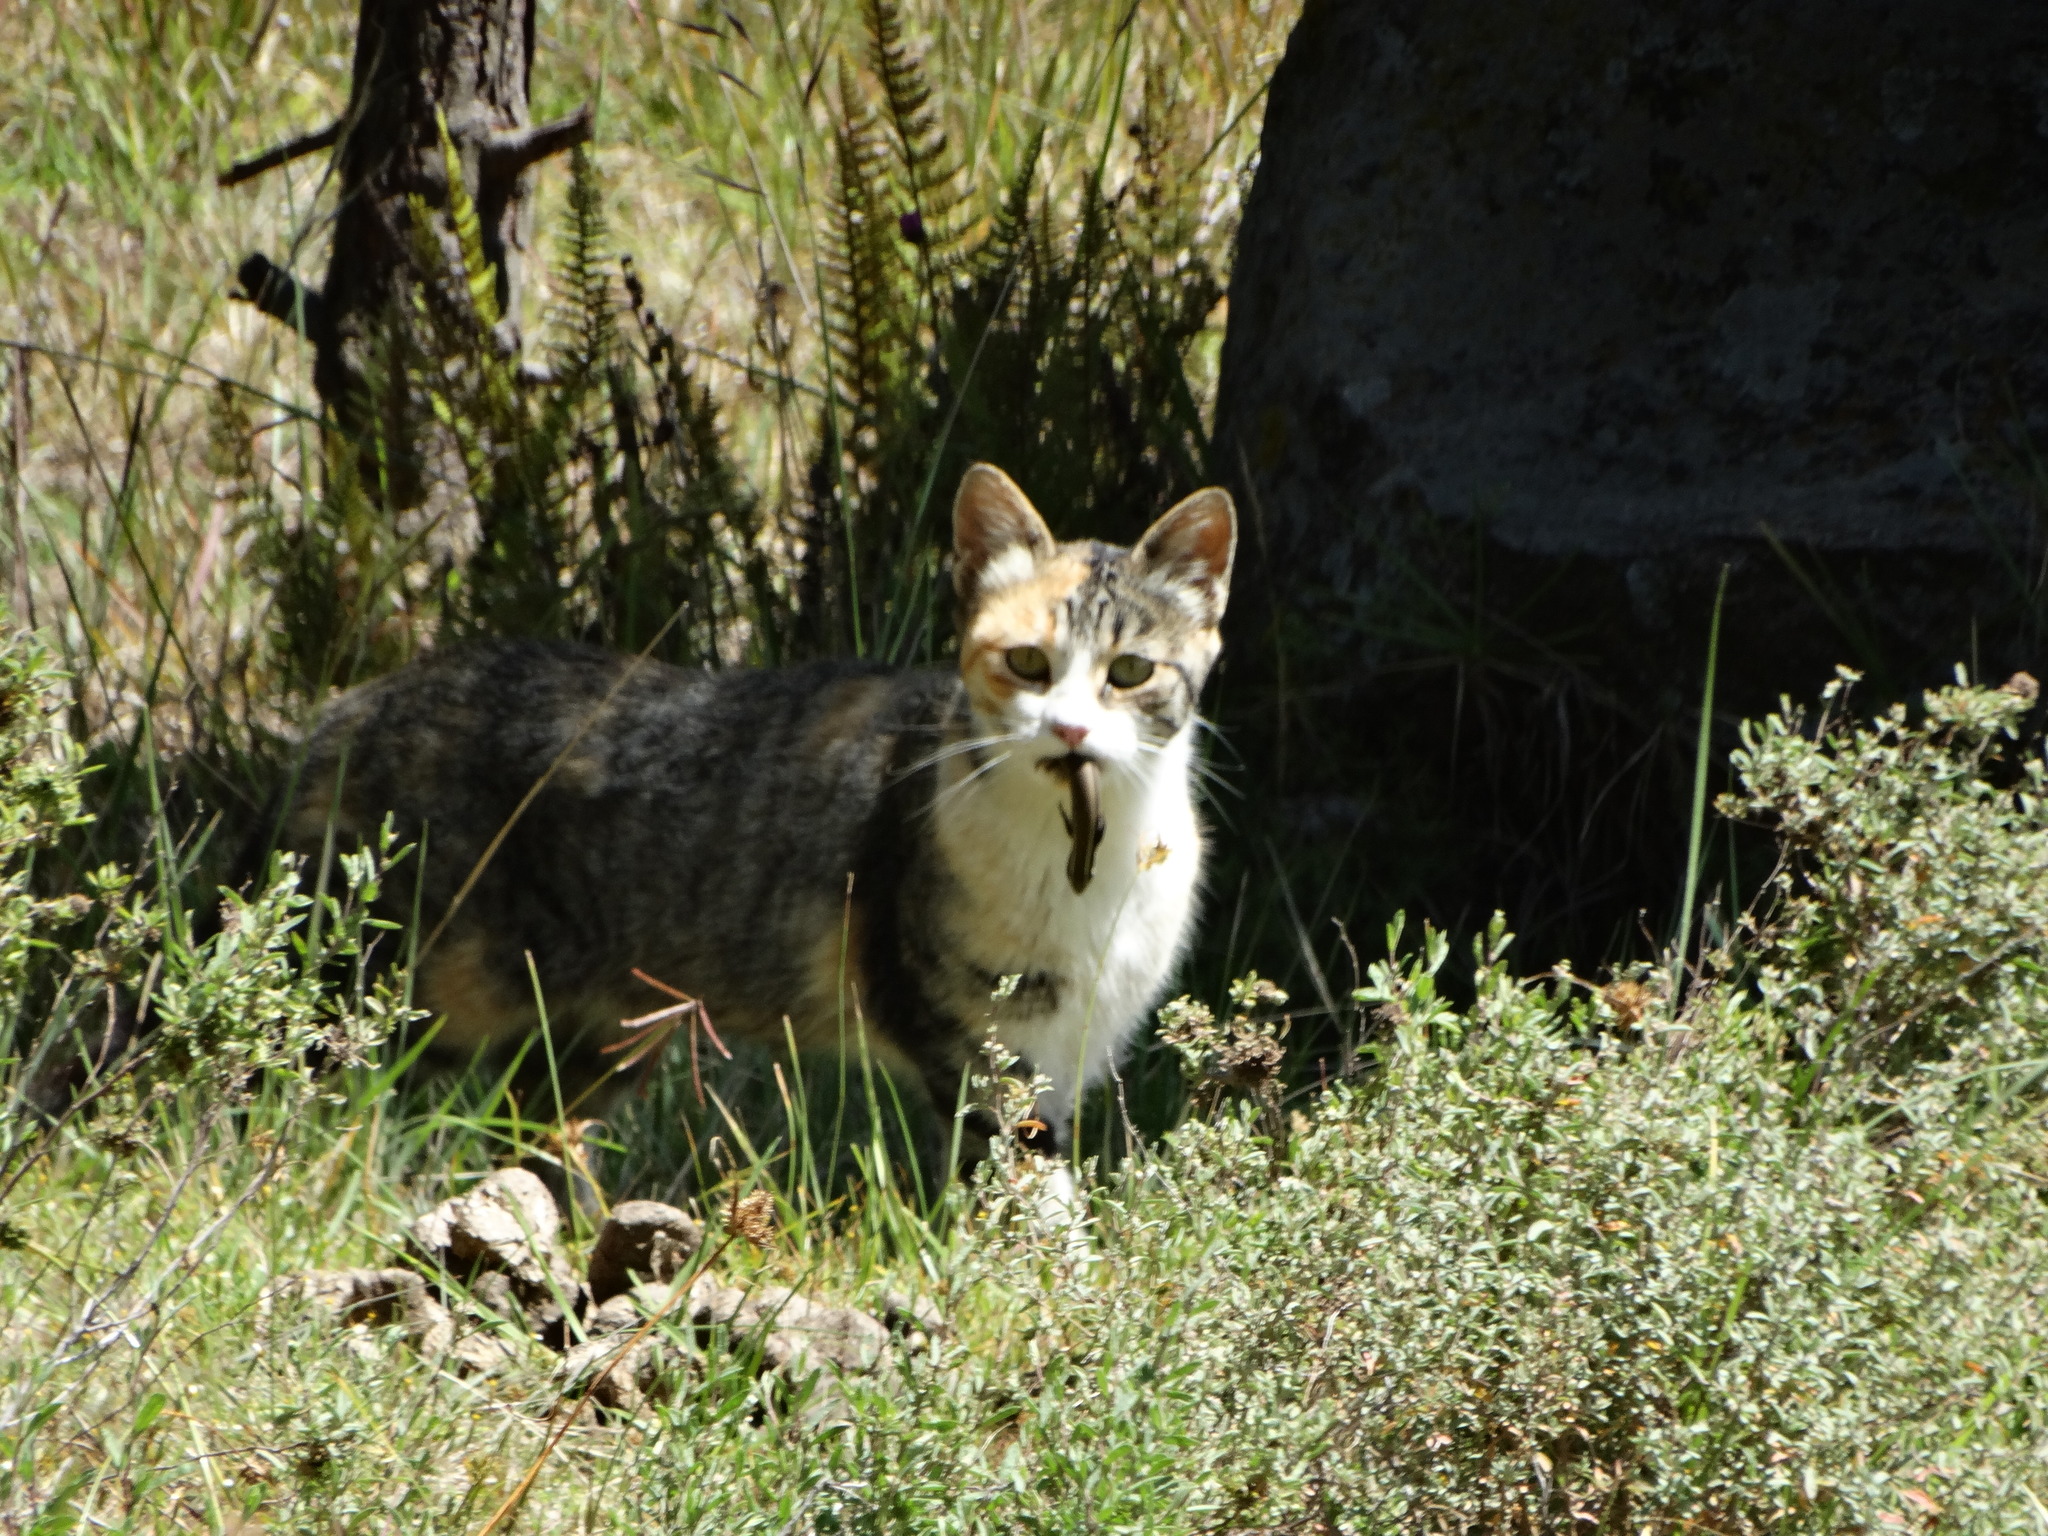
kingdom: Animalia
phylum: Chordata
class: Mammalia
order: Carnivora
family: Felidae
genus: Felis
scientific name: Felis catus
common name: Domestic cat
